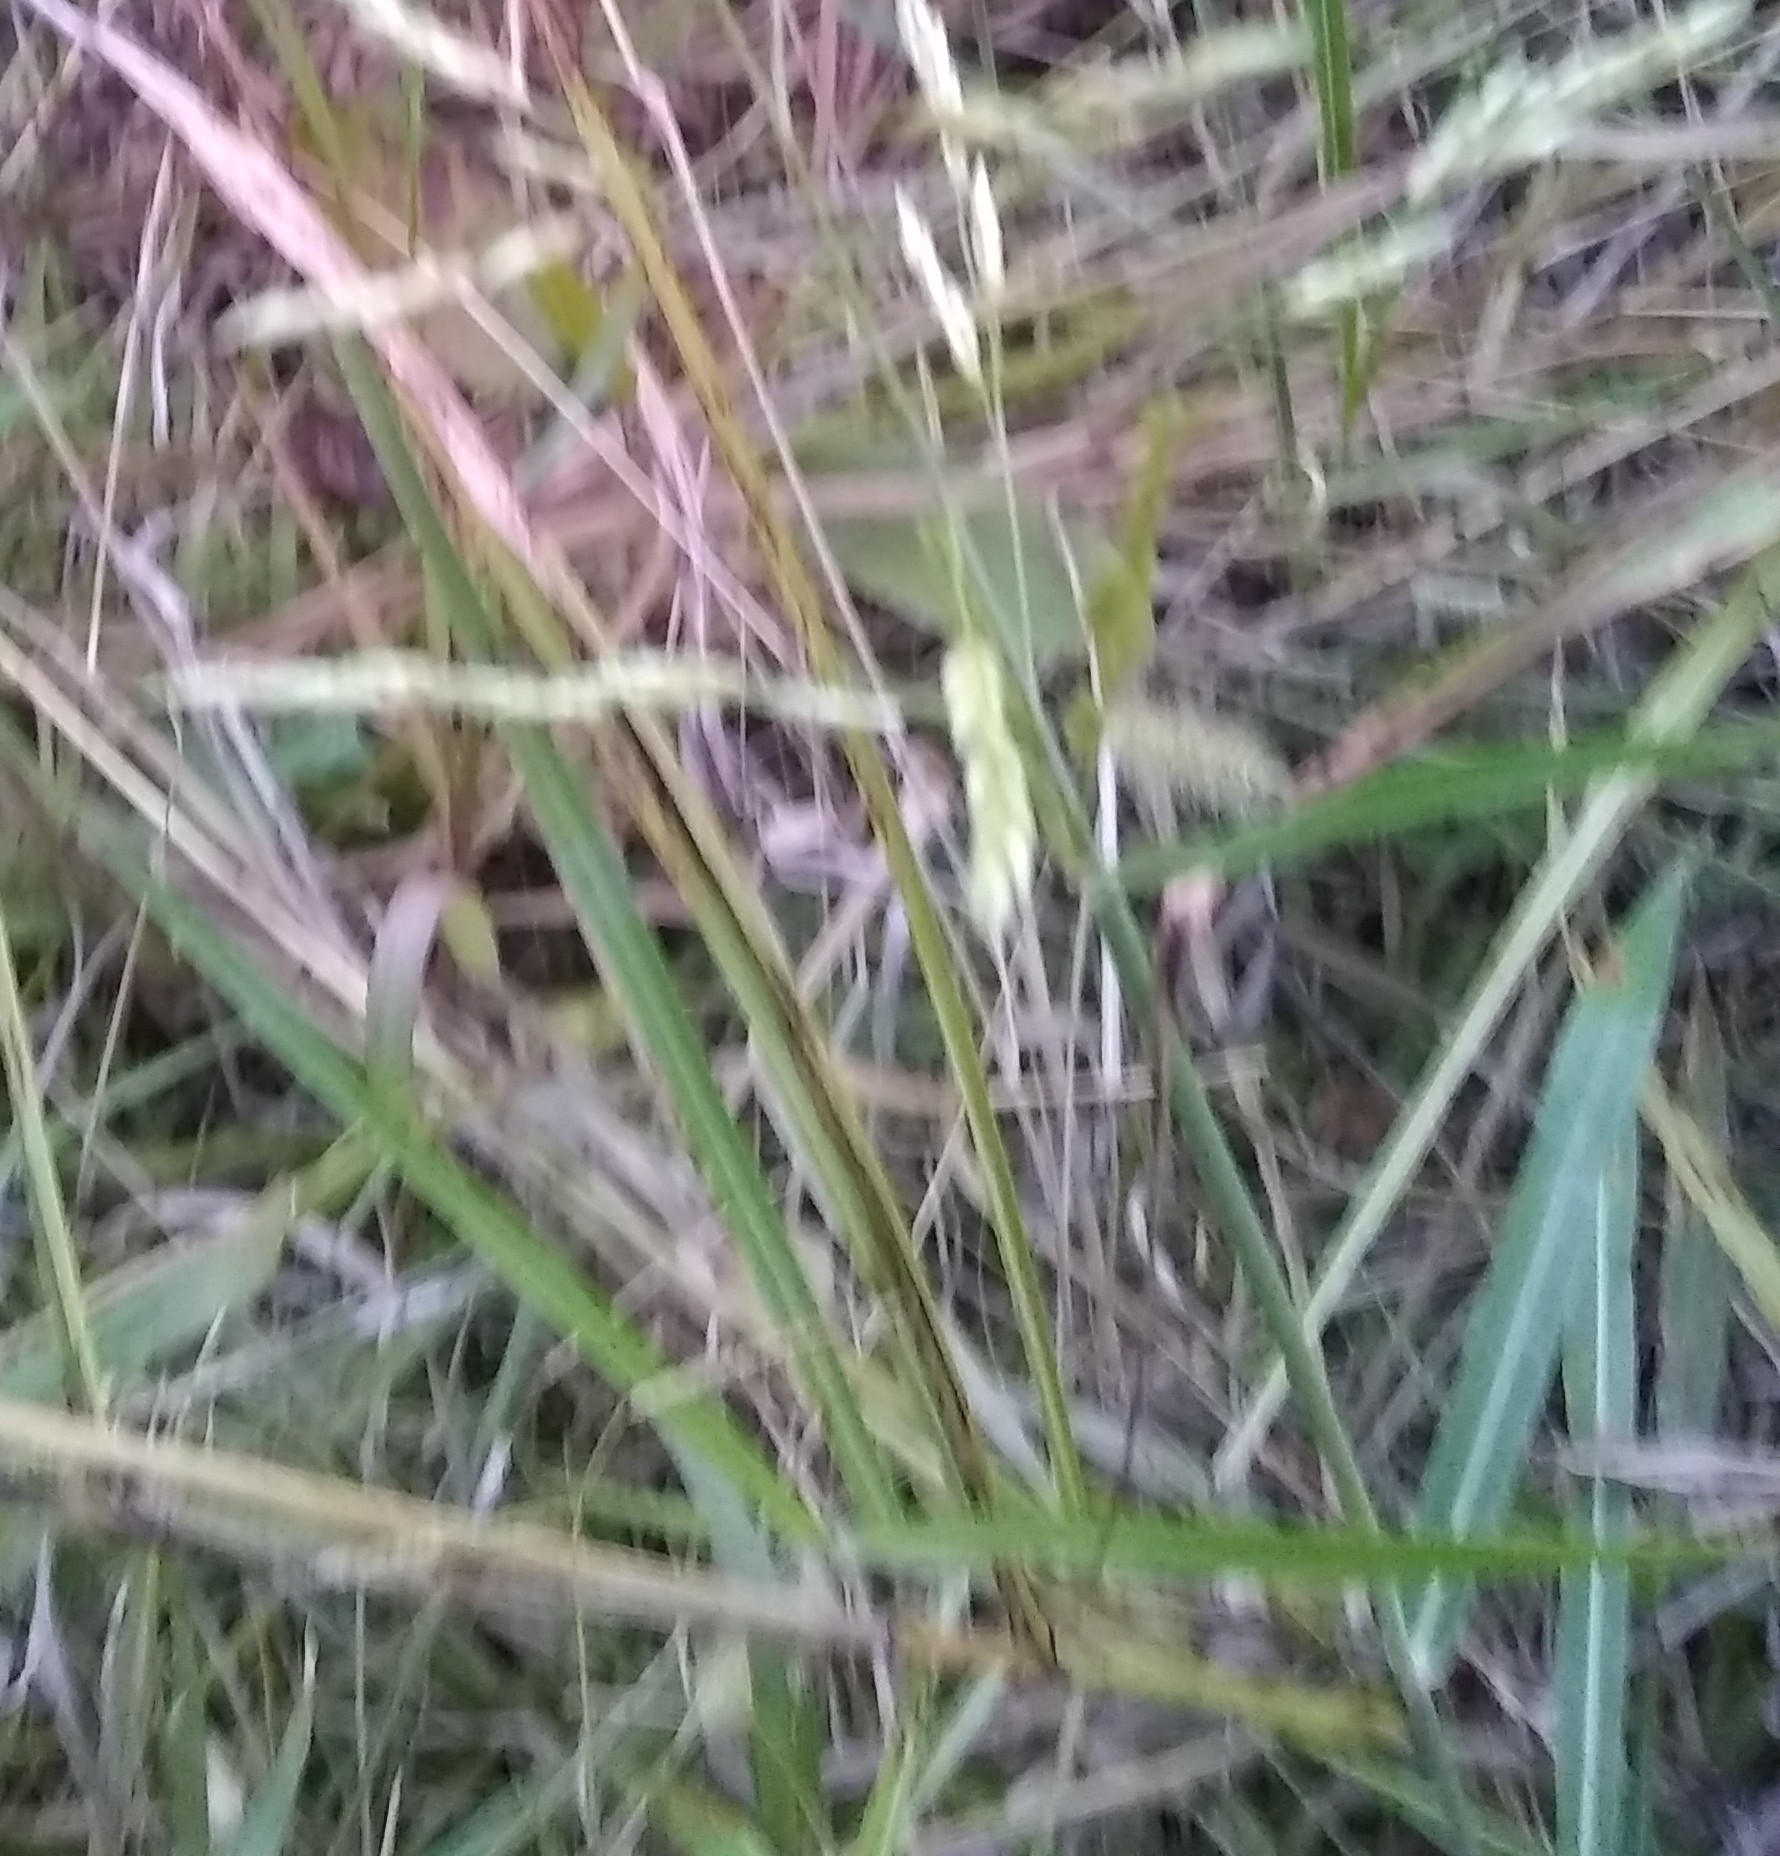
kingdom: Plantae
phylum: Tracheophyta
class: Liliopsida
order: Poales
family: Poaceae
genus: Sorghum
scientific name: Sorghum halepense
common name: Johnson-grass
